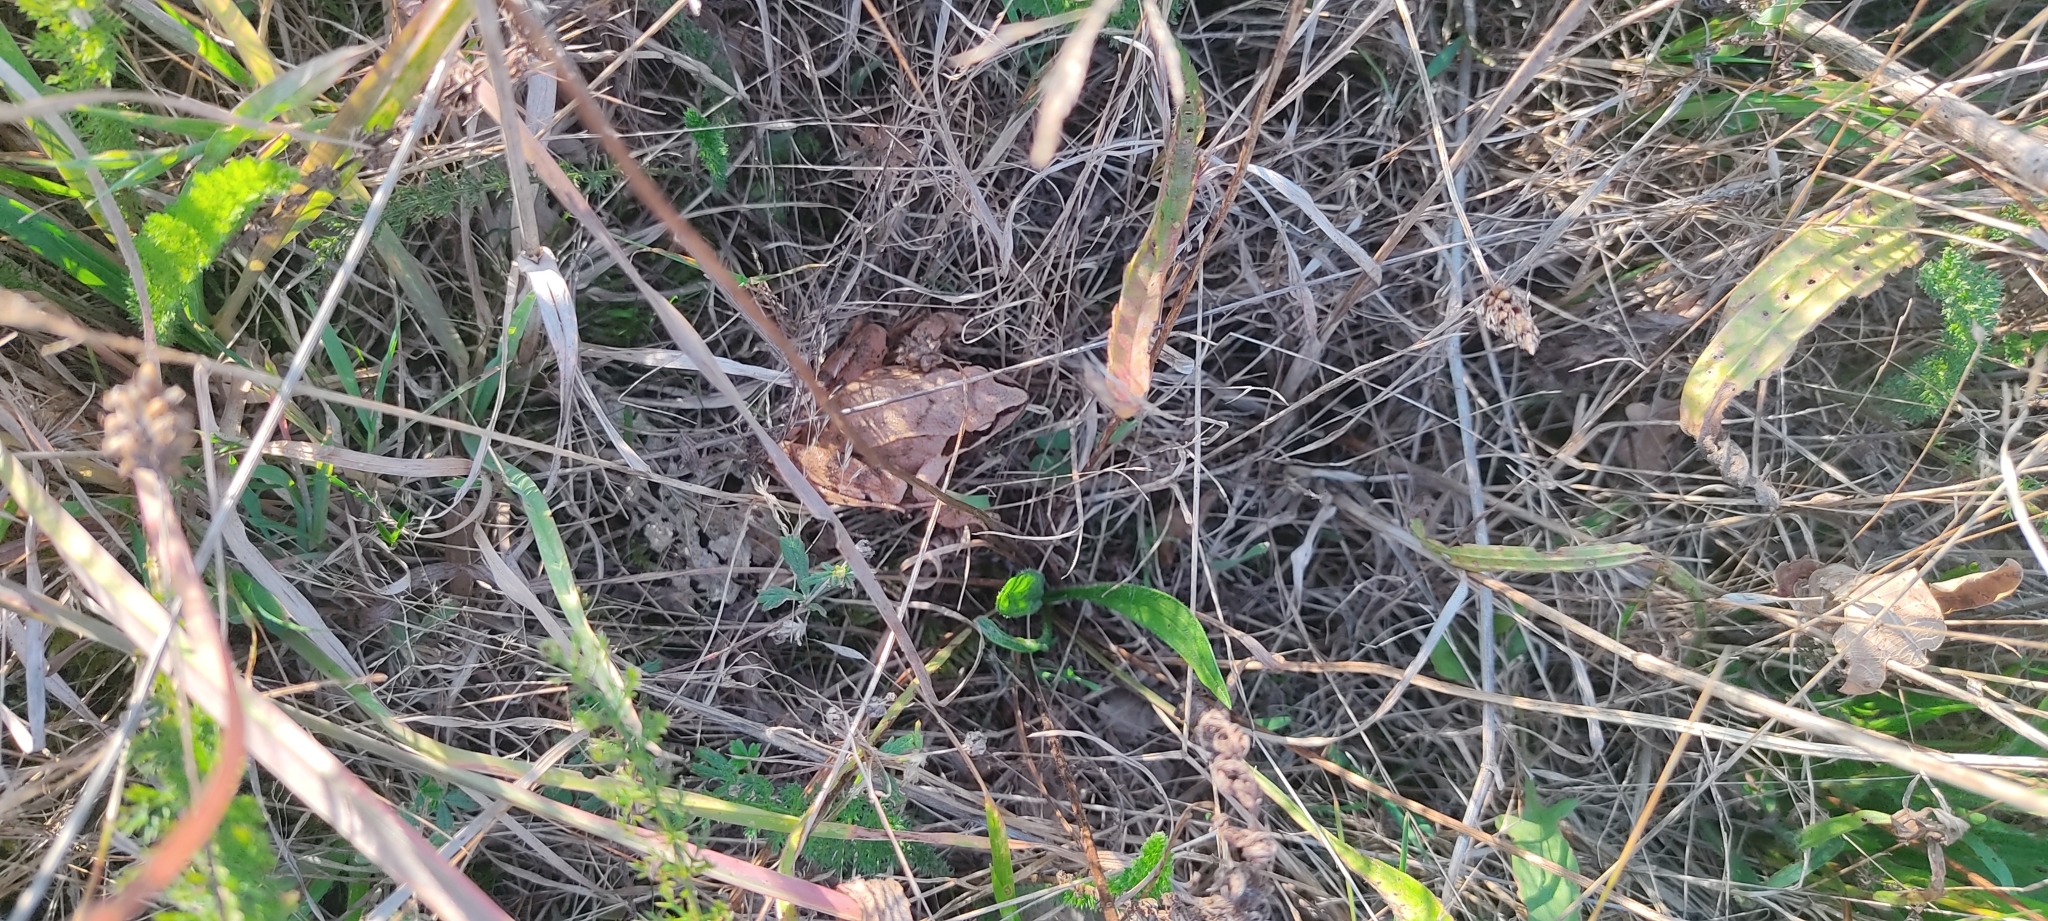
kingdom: Animalia
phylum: Chordata
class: Amphibia
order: Anura
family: Ranidae
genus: Rana
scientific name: Rana dalmatina
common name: Agile frog
